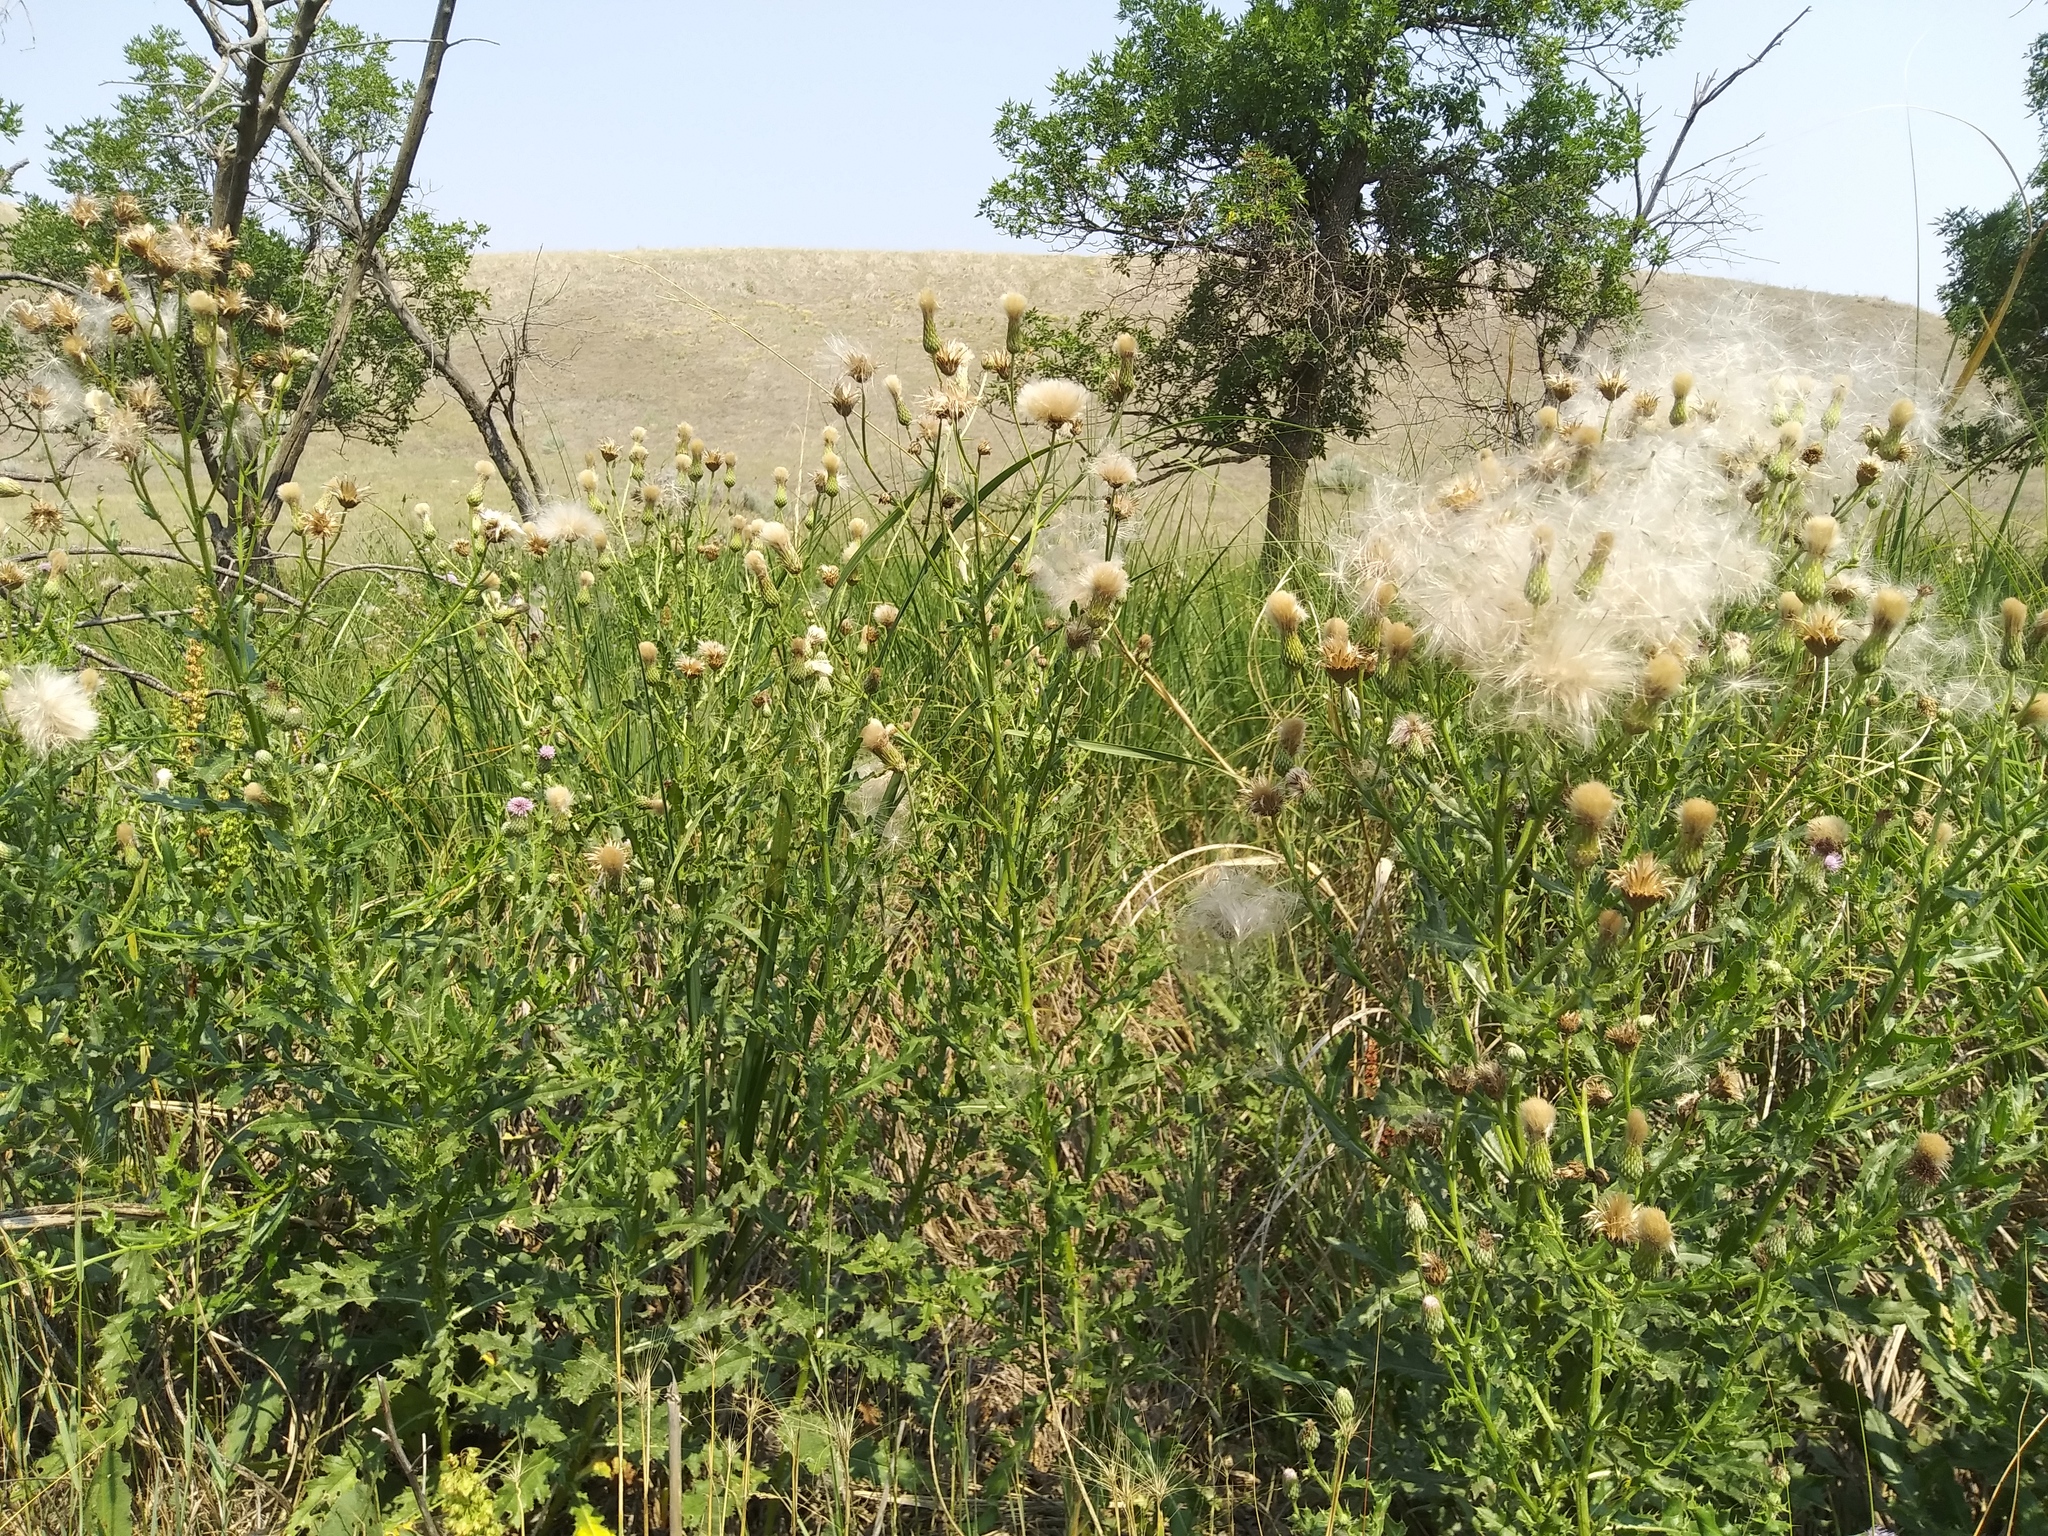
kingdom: Plantae
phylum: Tracheophyta
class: Magnoliopsida
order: Asterales
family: Asteraceae
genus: Cirsium
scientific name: Cirsium arvense
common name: Creeping thistle
